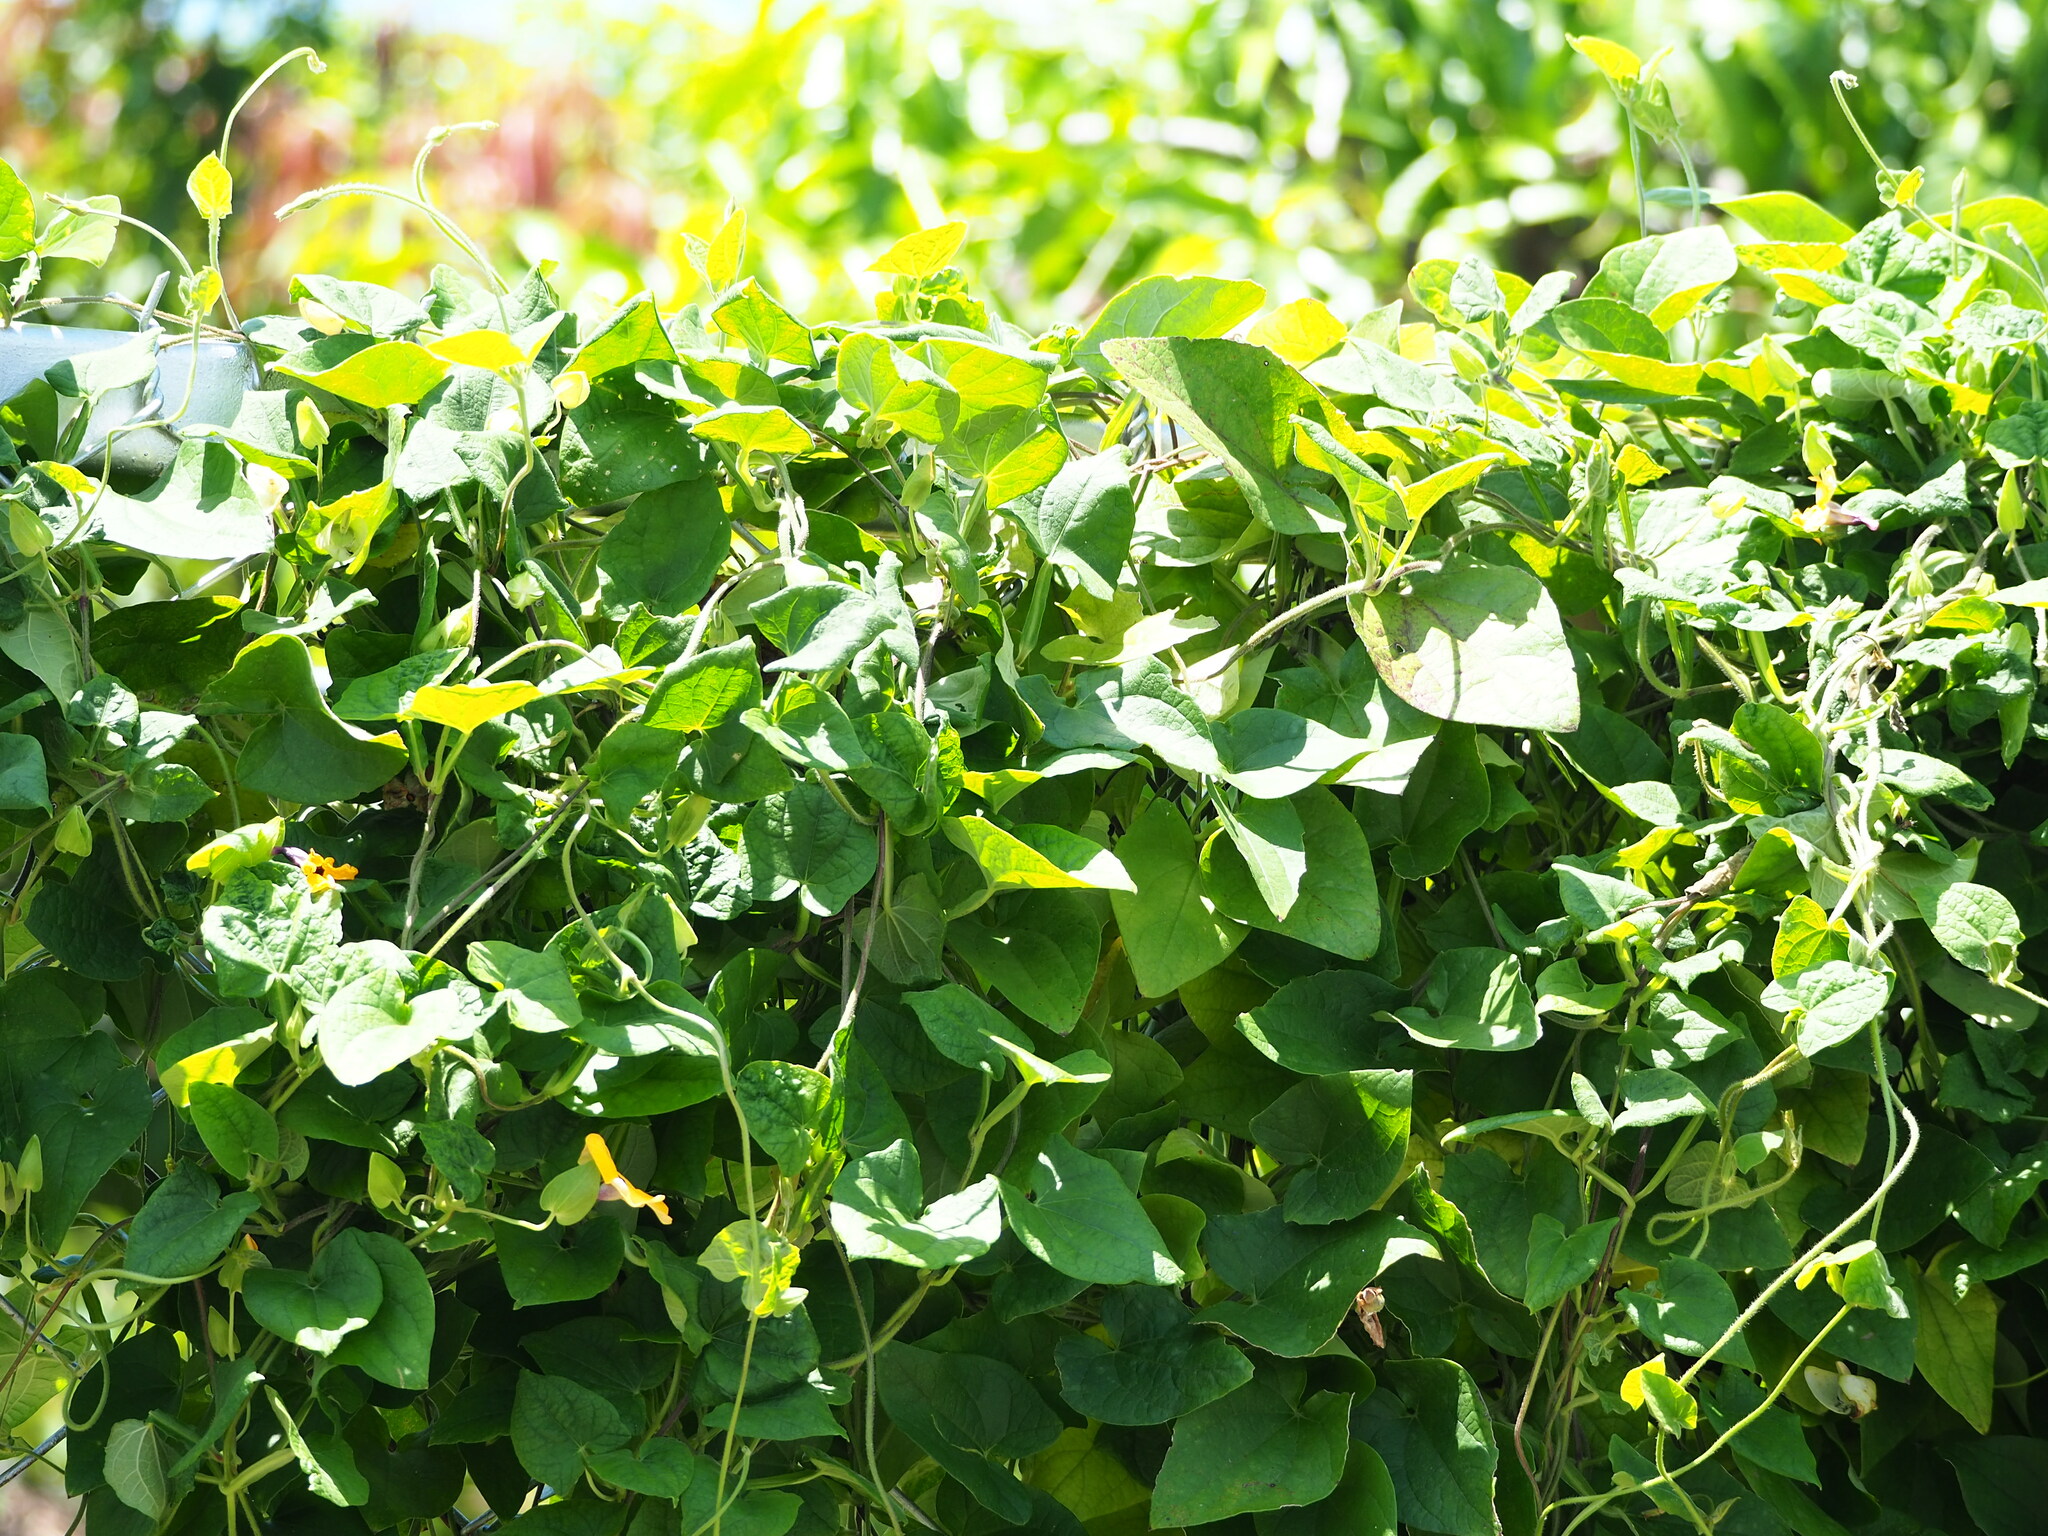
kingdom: Plantae
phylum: Tracheophyta
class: Magnoliopsida
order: Lamiales
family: Acanthaceae
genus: Thunbergia
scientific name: Thunbergia alata
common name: Blackeyed susan vine
